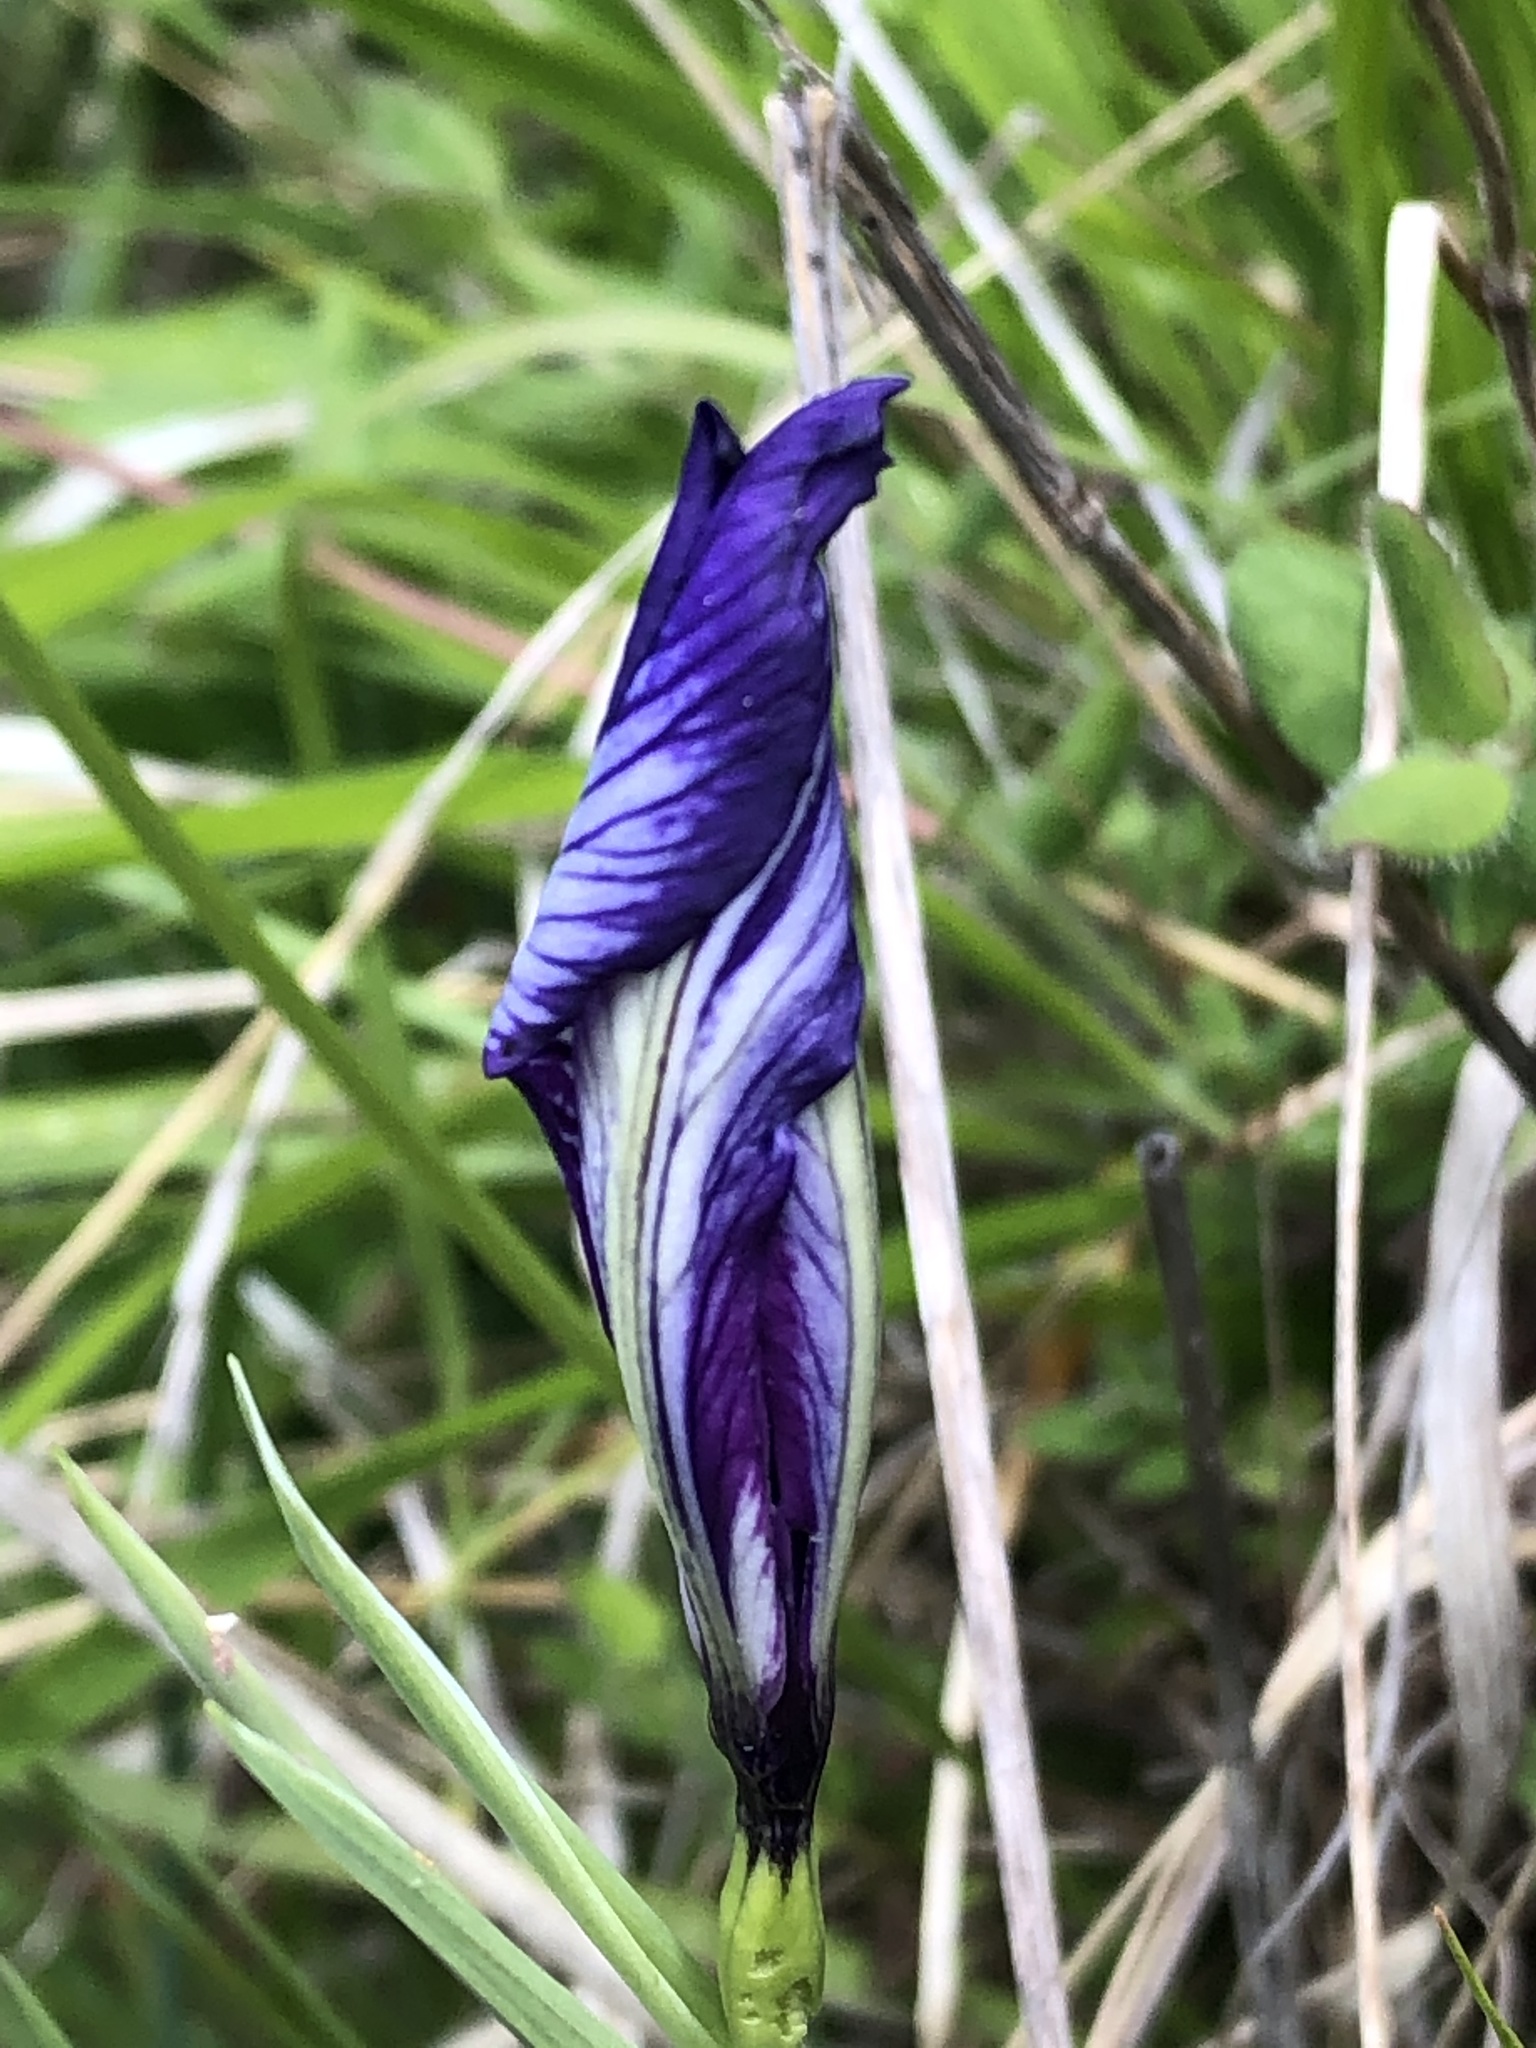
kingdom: Plantae
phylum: Tracheophyta
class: Liliopsida
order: Asparagales
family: Iridaceae
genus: Iris
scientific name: Iris tenax
